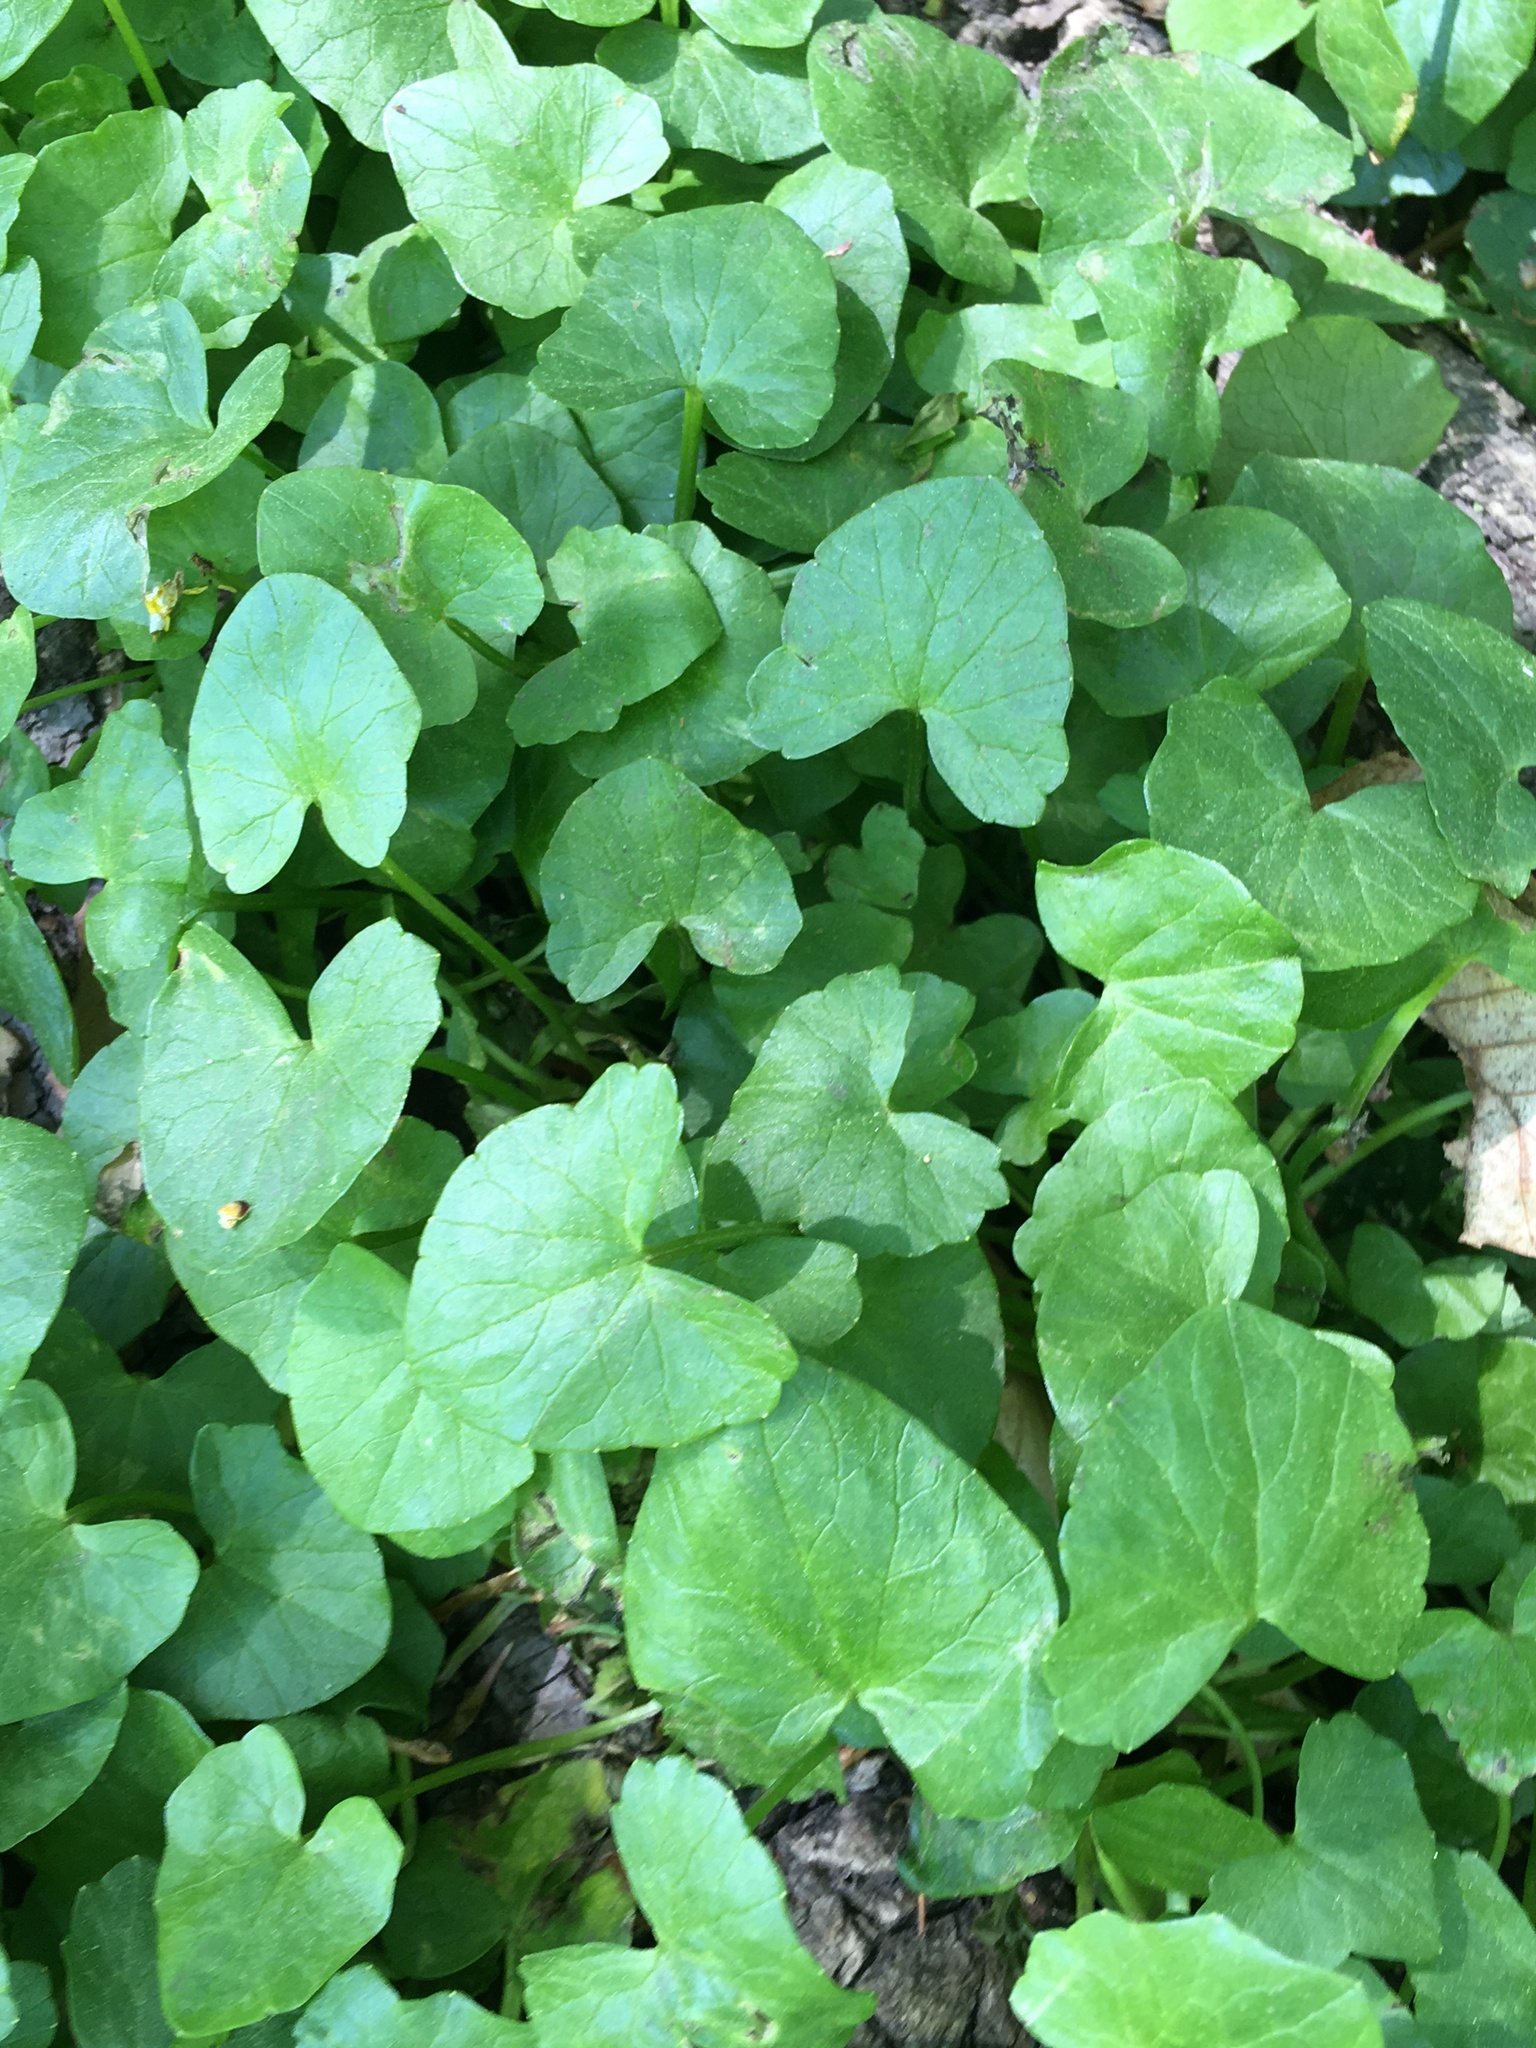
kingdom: Plantae
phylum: Tracheophyta
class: Magnoliopsida
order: Ranunculales
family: Ranunculaceae
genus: Ficaria
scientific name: Ficaria verna
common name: Lesser celandine
